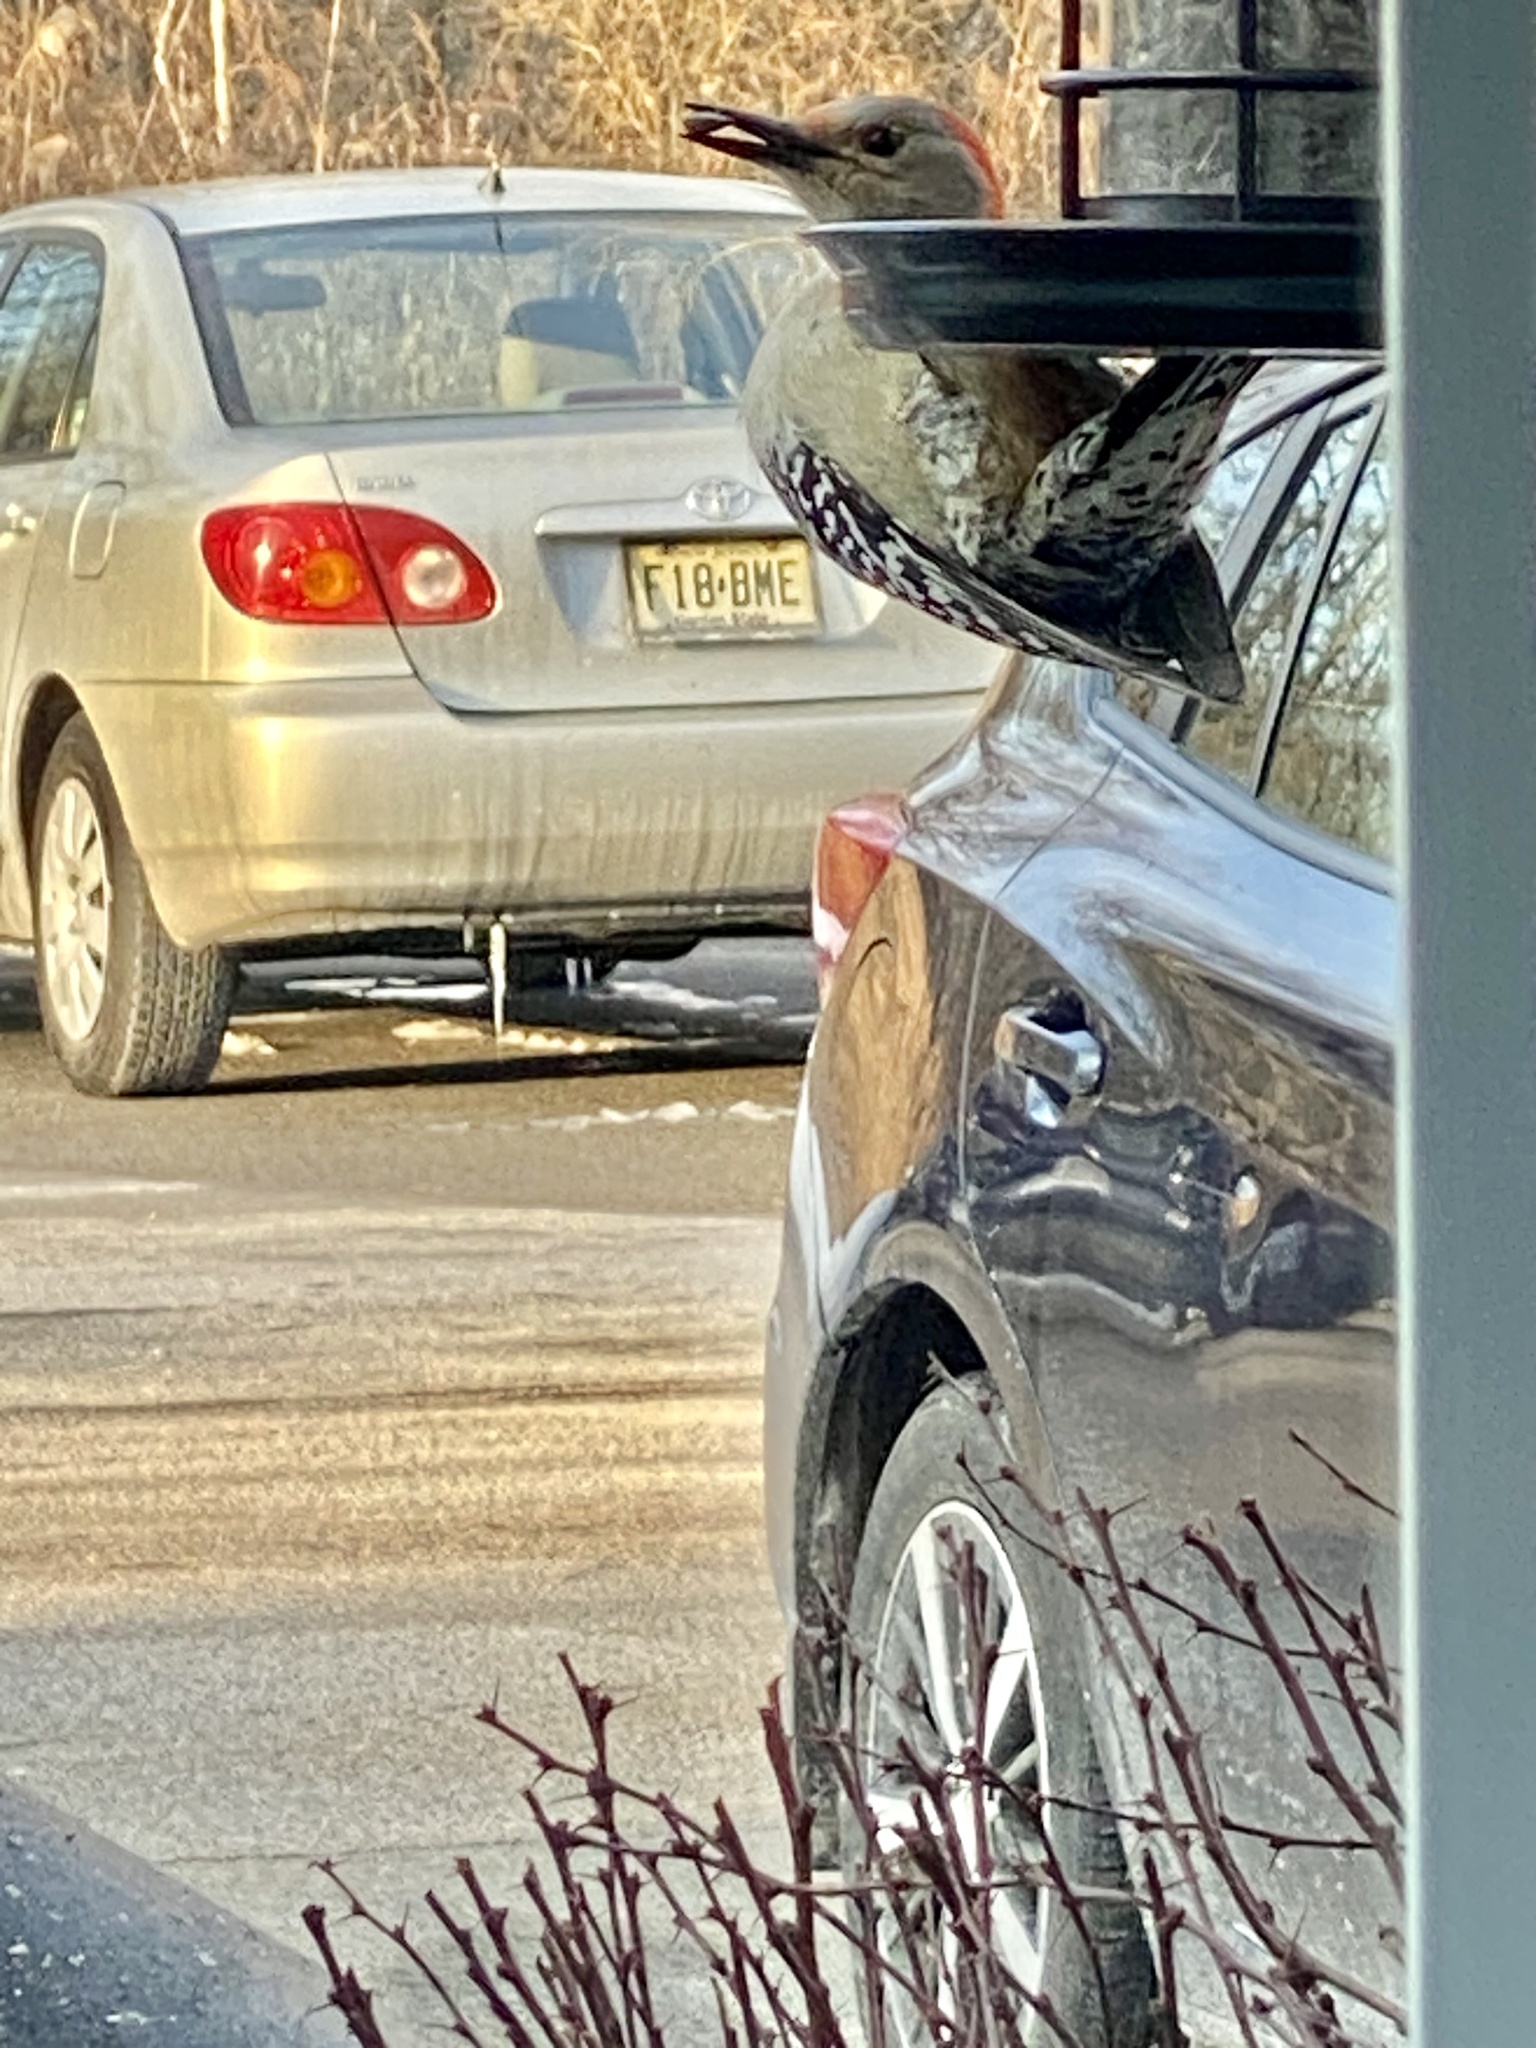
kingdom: Animalia
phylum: Chordata
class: Aves
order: Piciformes
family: Picidae
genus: Melanerpes
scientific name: Melanerpes carolinus
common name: Red-bellied woodpecker
